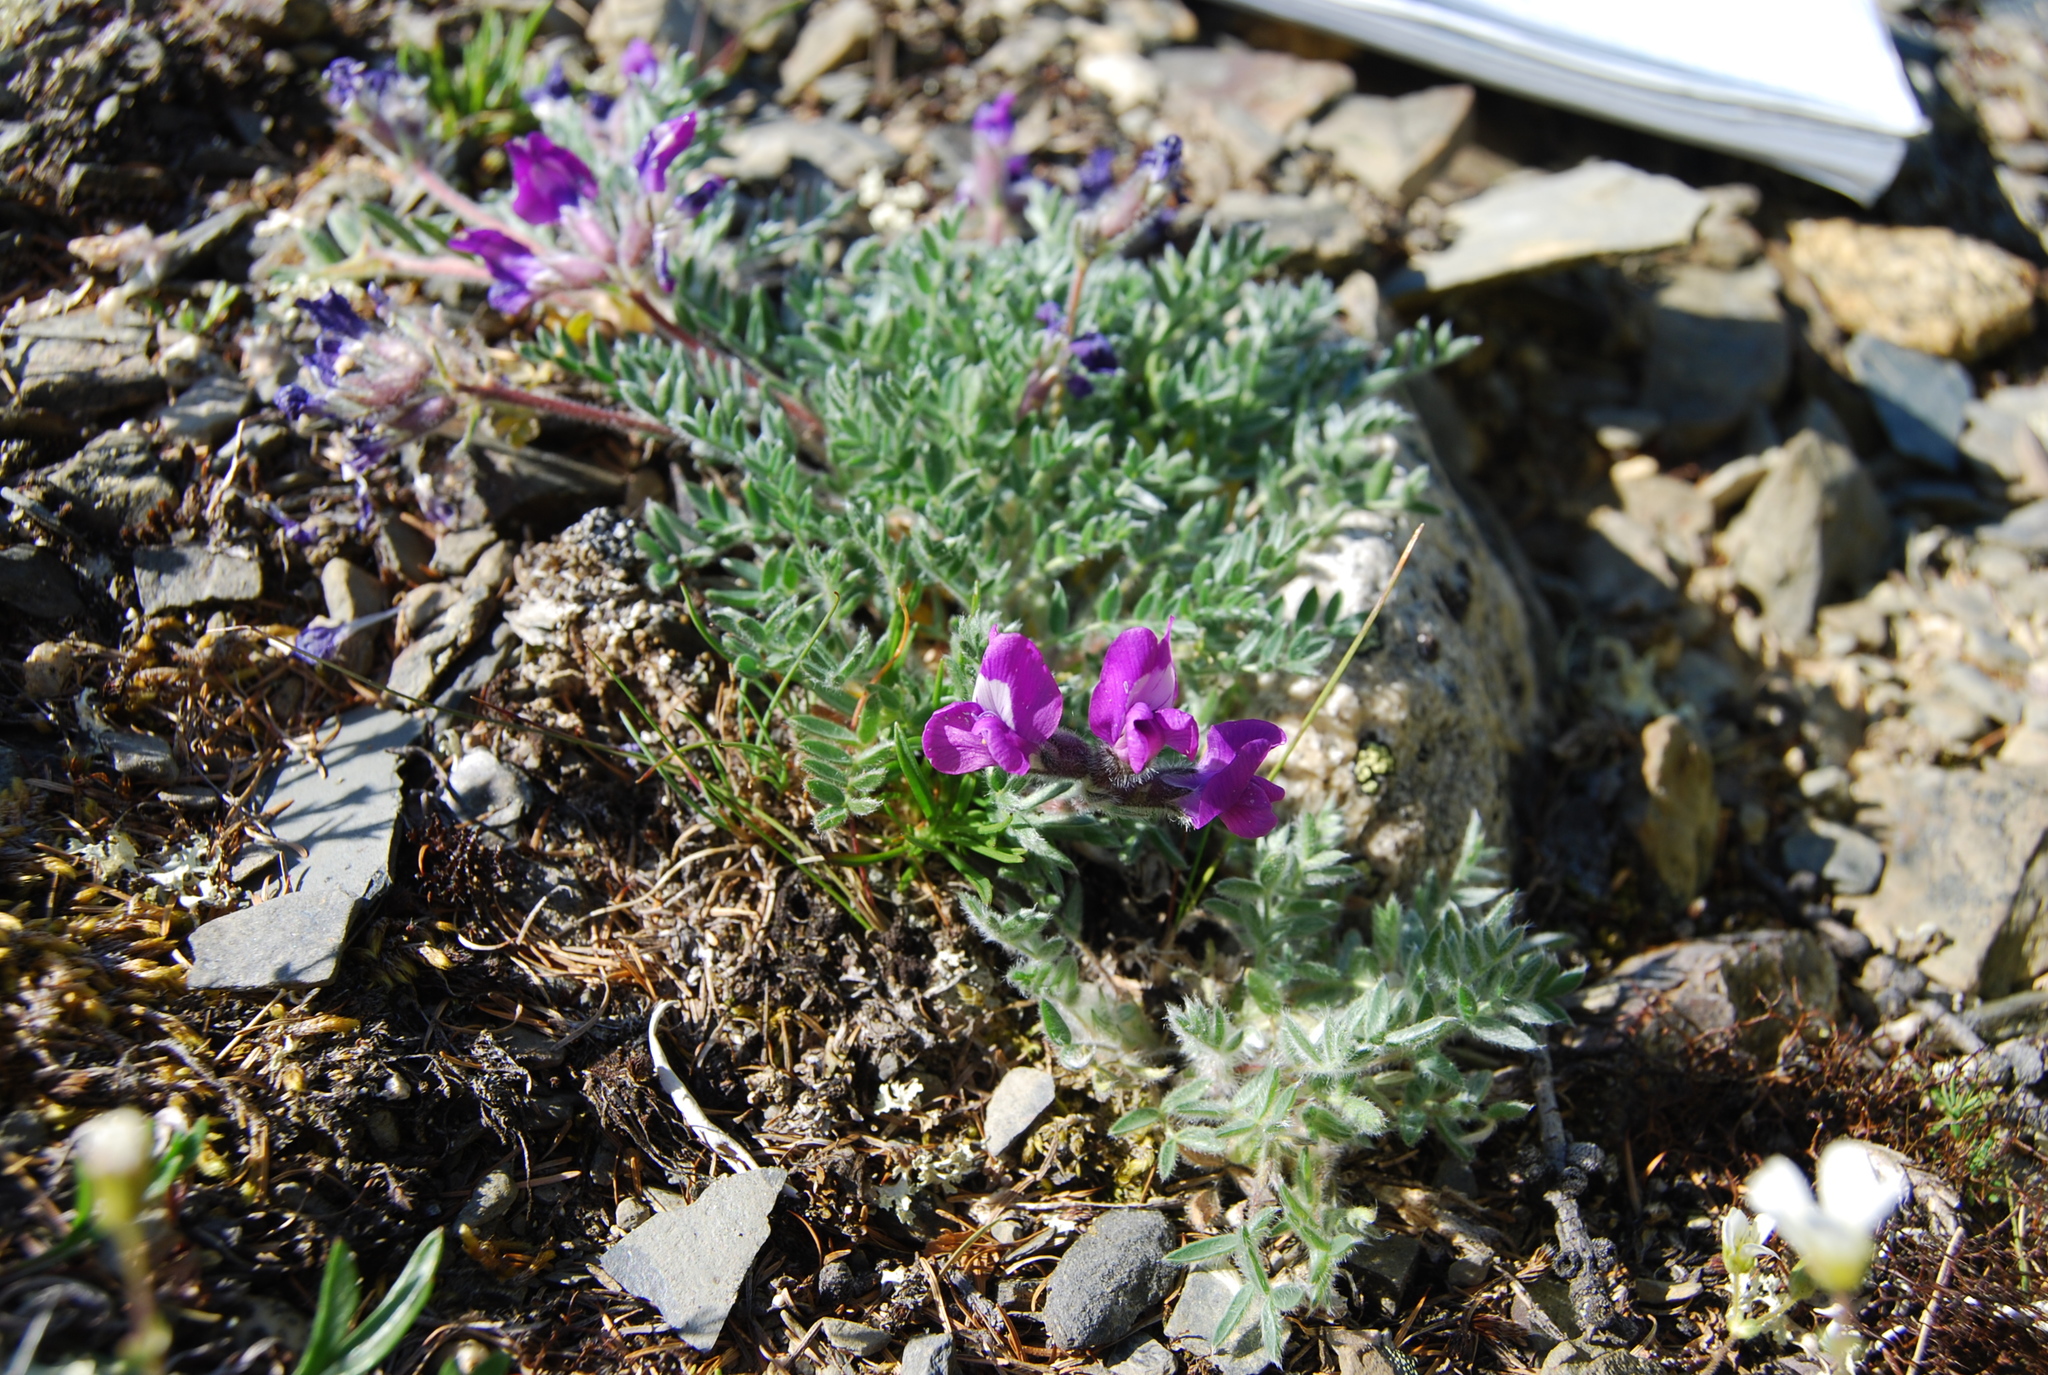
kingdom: Plantae
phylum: Tracheophyta
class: Magnoliopsida
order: Fabales
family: Fabaceae
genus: Oxytropis
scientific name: Oxytropis susumanica
